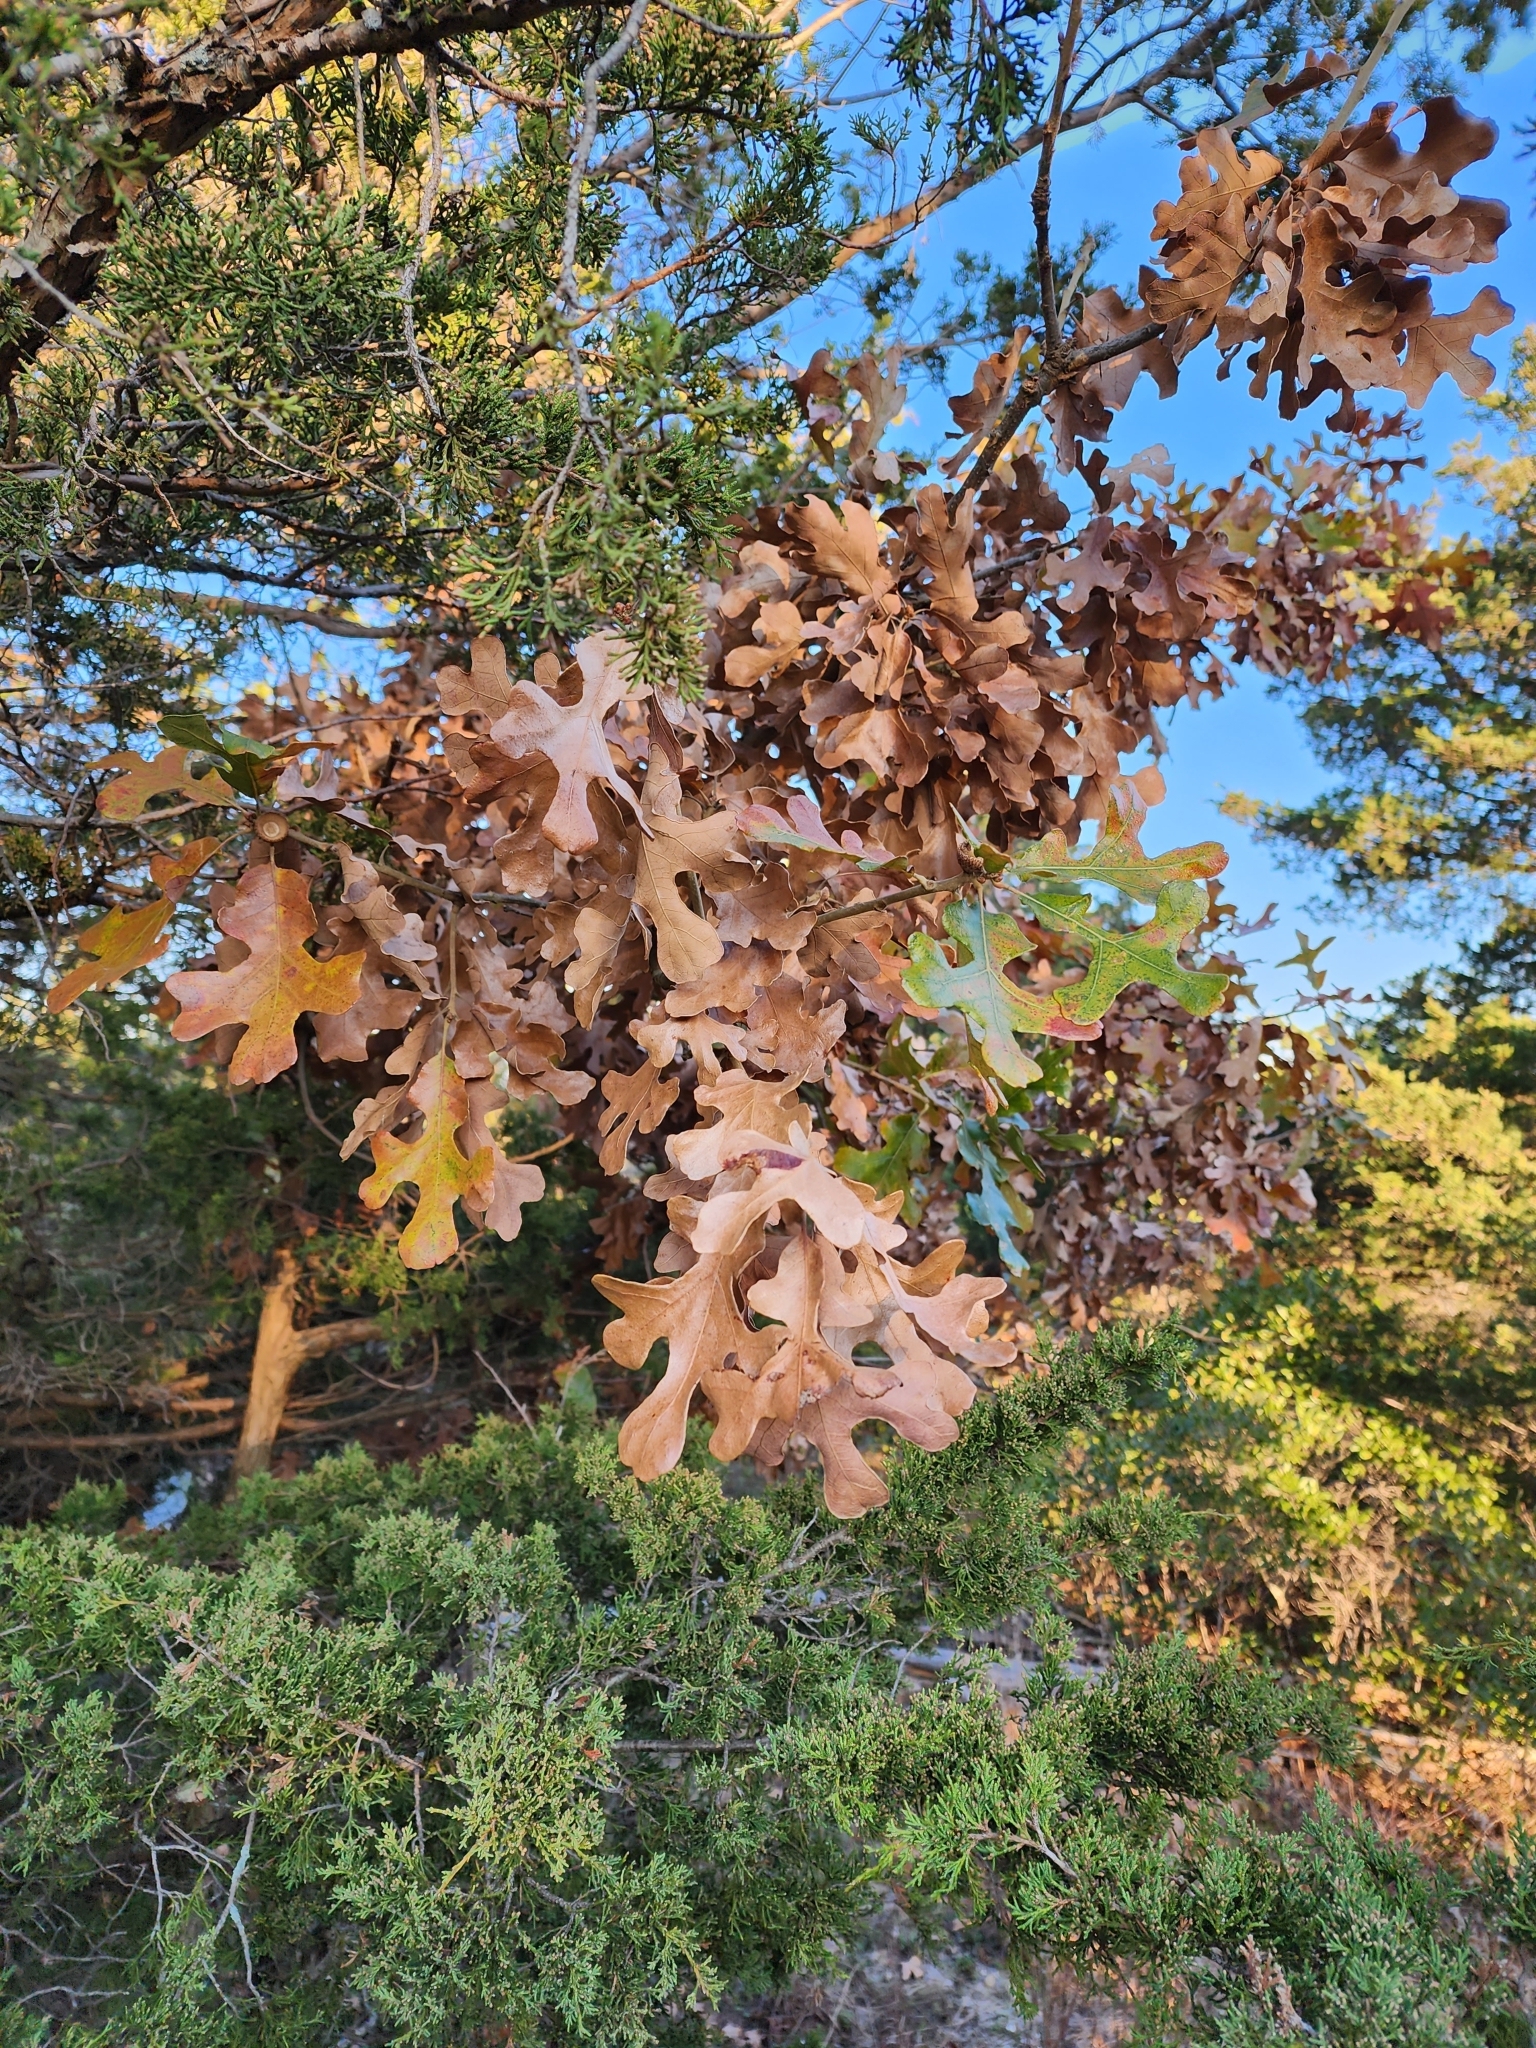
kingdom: Plantae
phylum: Tracheophyta
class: Magnoliopsida
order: Fagales
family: Fagaceae
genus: Quercus
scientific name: Quercus stellata
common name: Post oak
